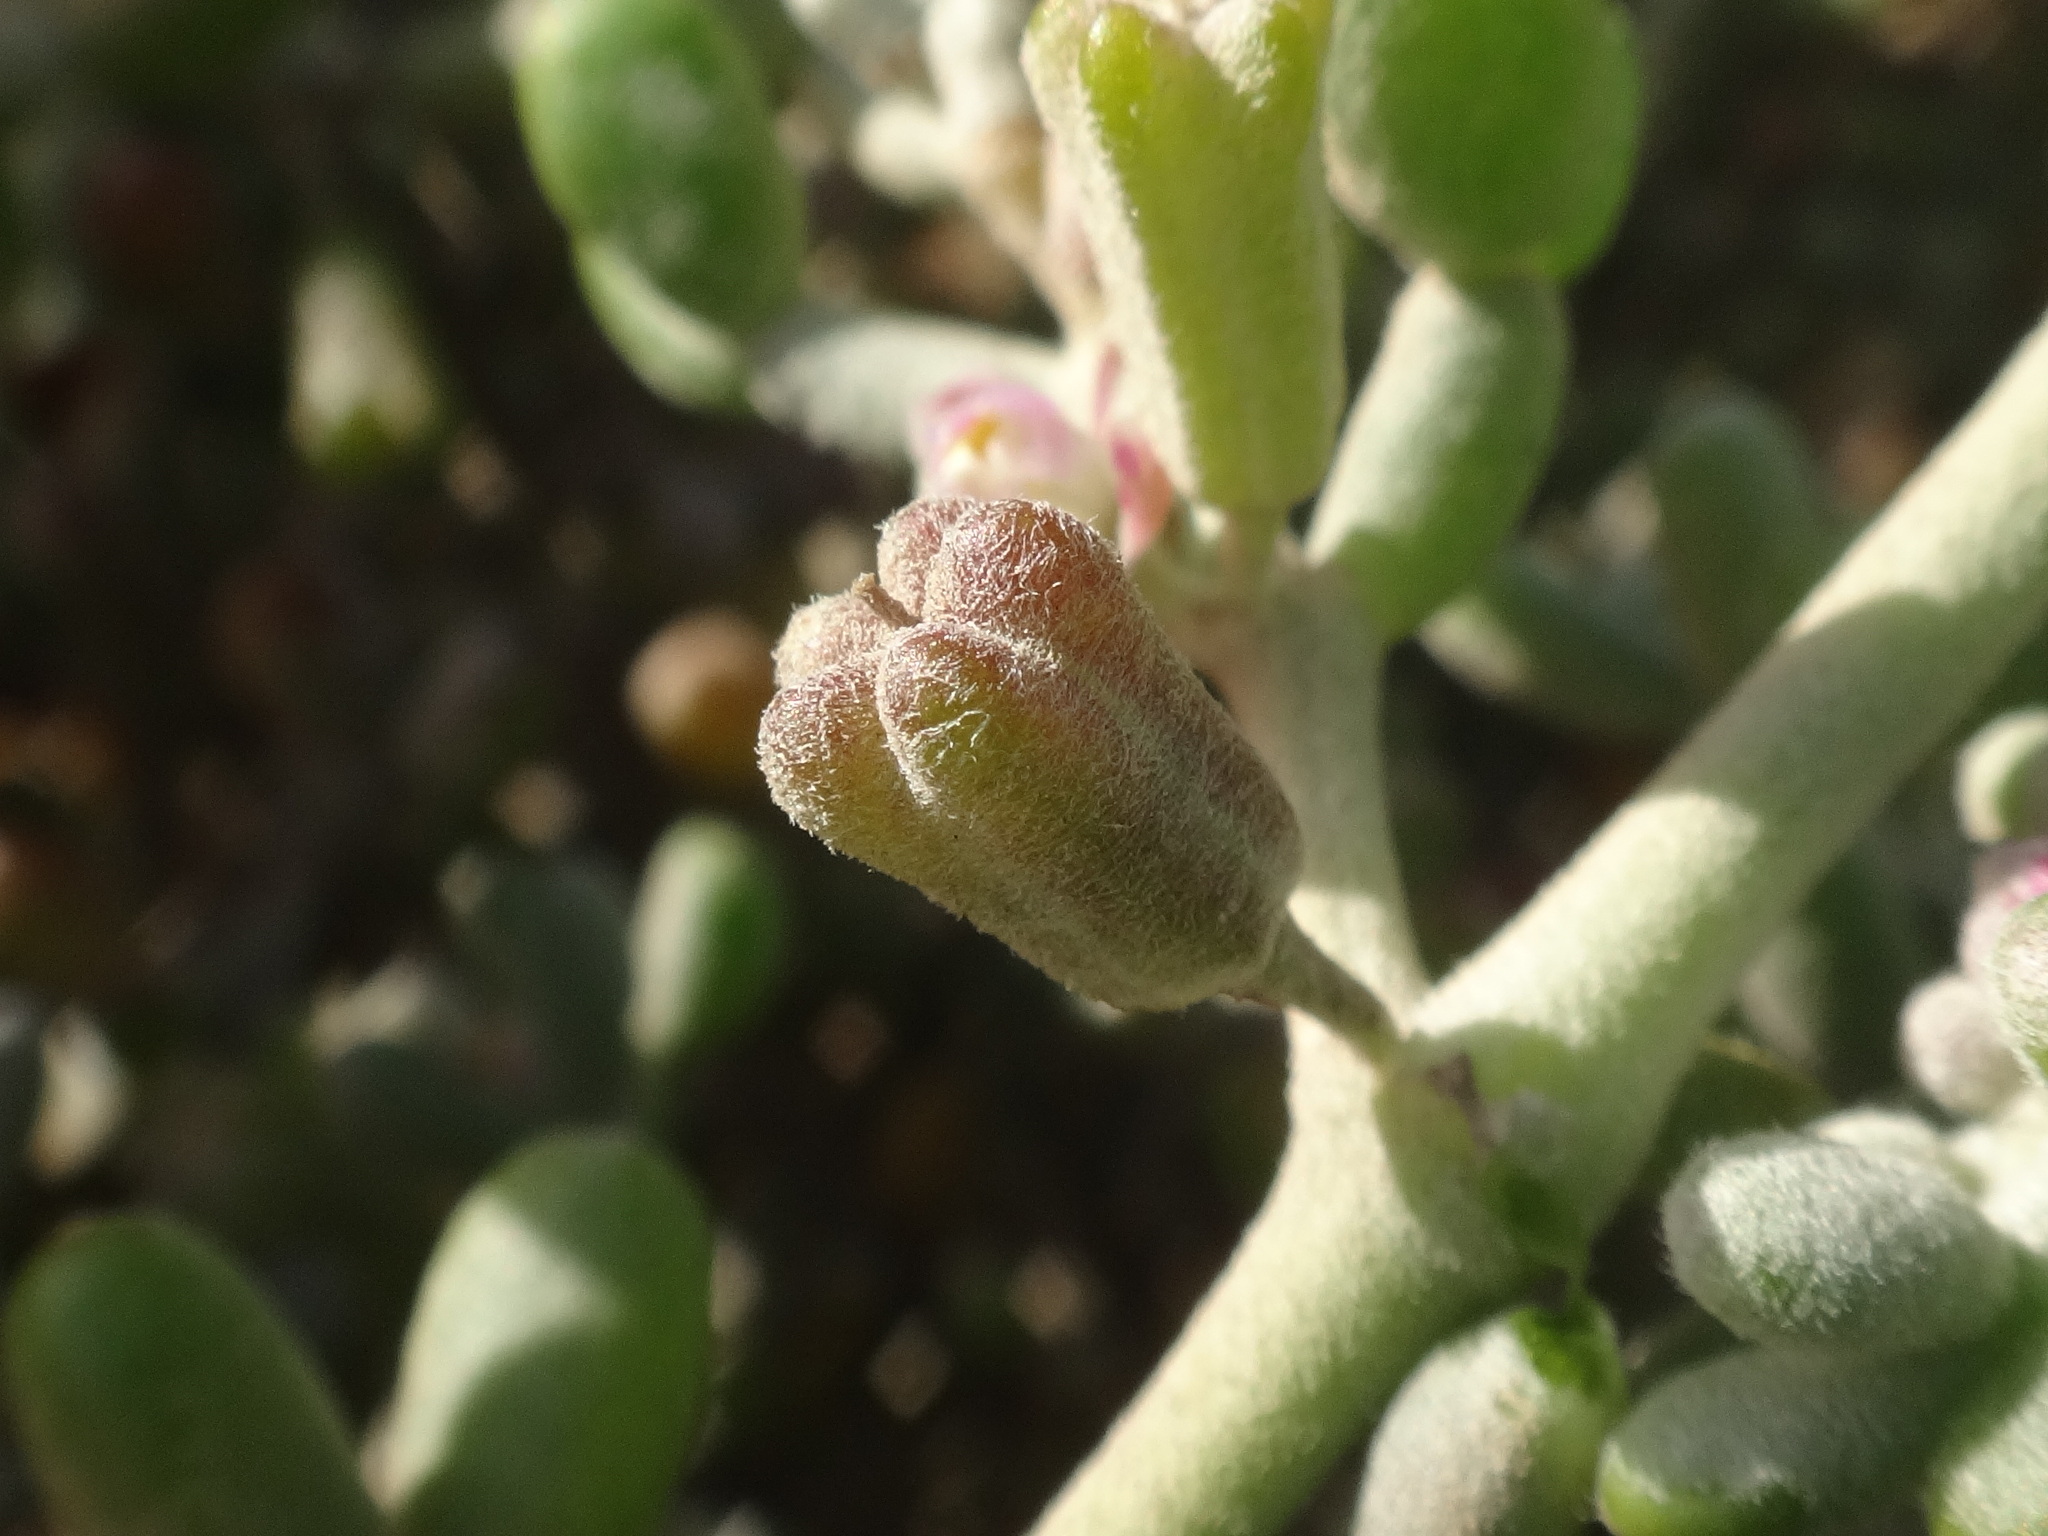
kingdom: Plantae
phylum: Tracheophyta
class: Magnoliopsida
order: Zygophyllales
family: Zygophyllaceae
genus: Tetraena
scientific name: Tetraena gaetula
